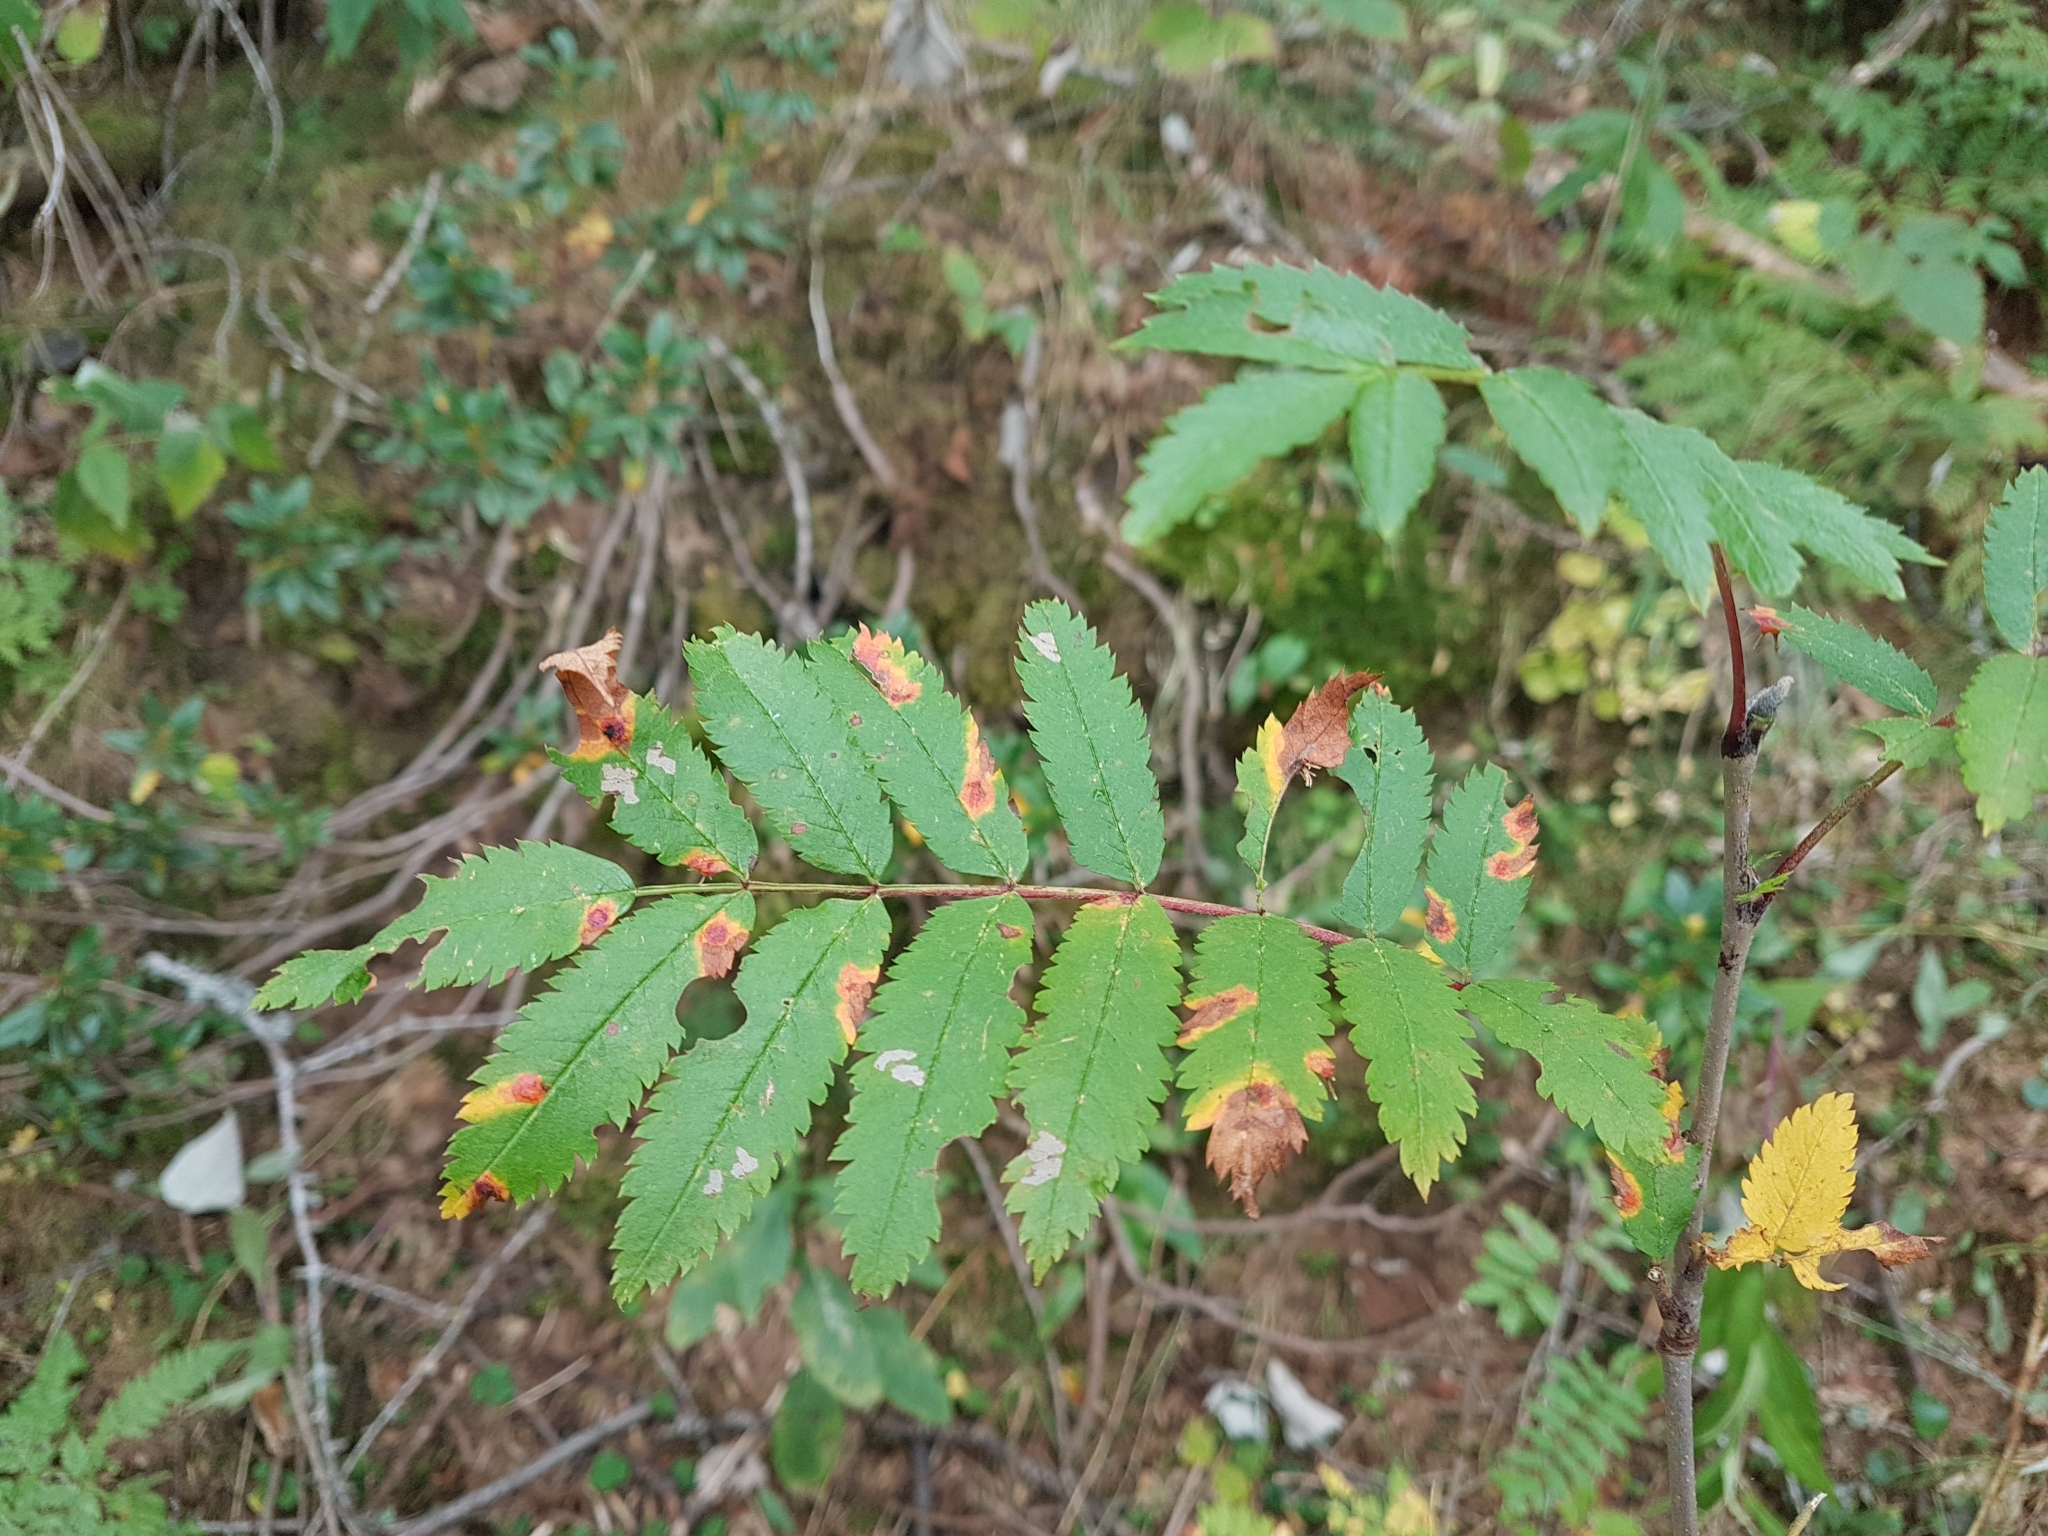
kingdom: Plantae
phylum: Tracheophyta
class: Magnoliopsida
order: Rosales
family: Rosaceae
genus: Sorbus
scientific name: Sorbus aucuparia
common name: Rowan
